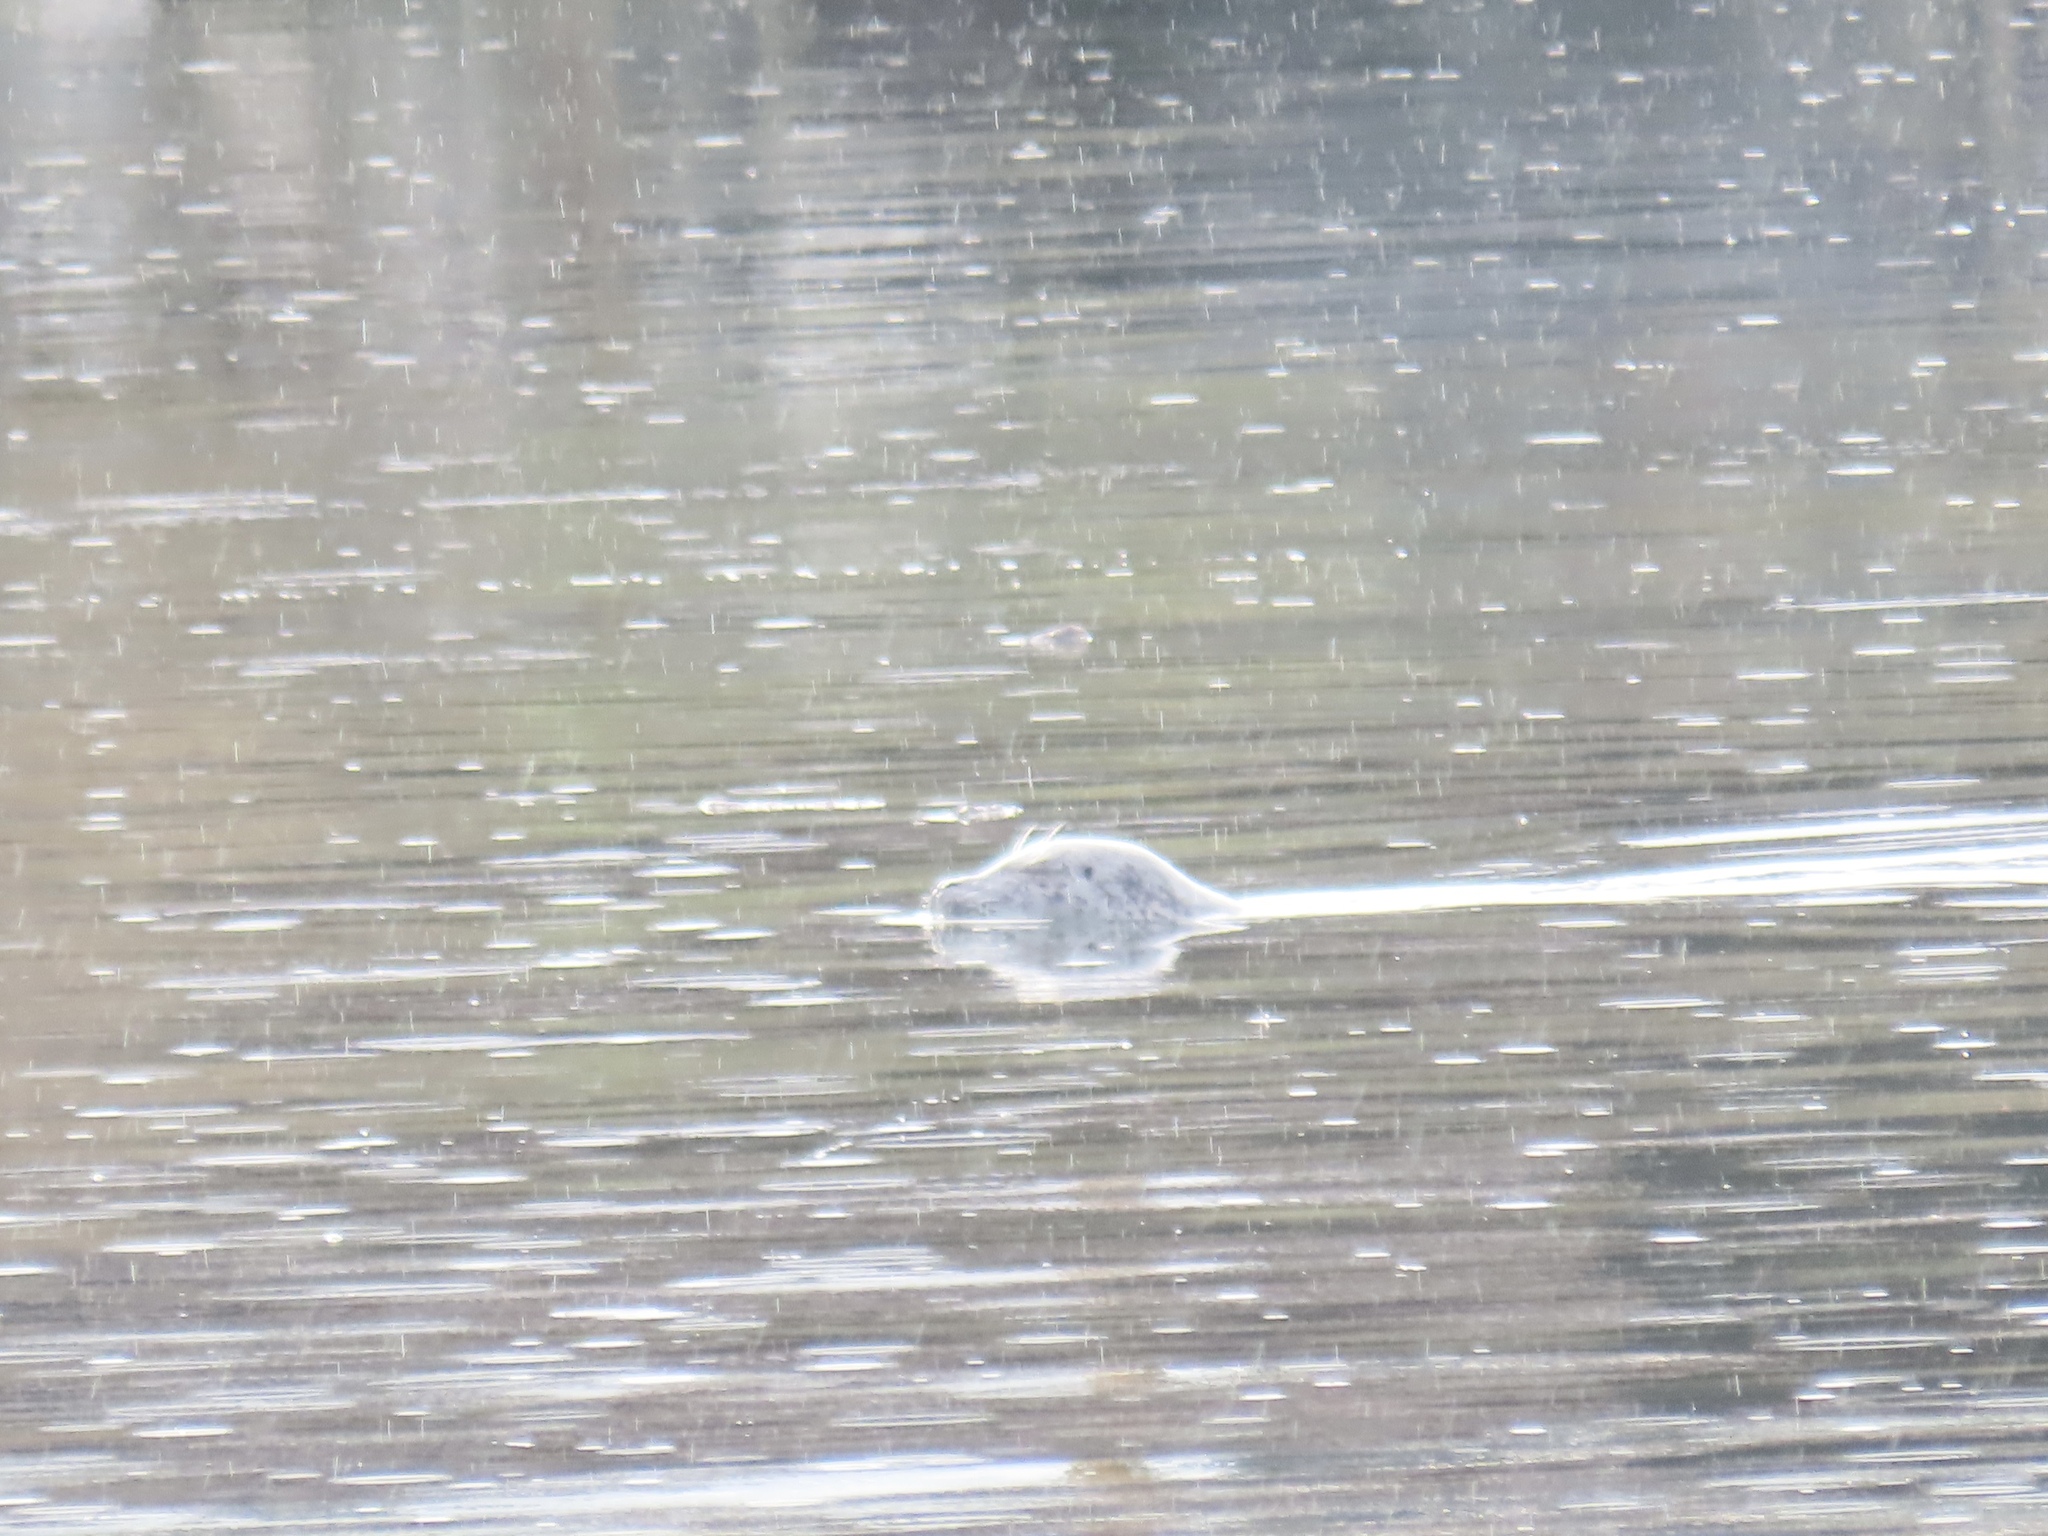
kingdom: Animalia
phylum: Chordata
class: Mammalia
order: Carnivora
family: Phocidae
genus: Phoca
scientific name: Phoca vitulina
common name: Harbor seal
